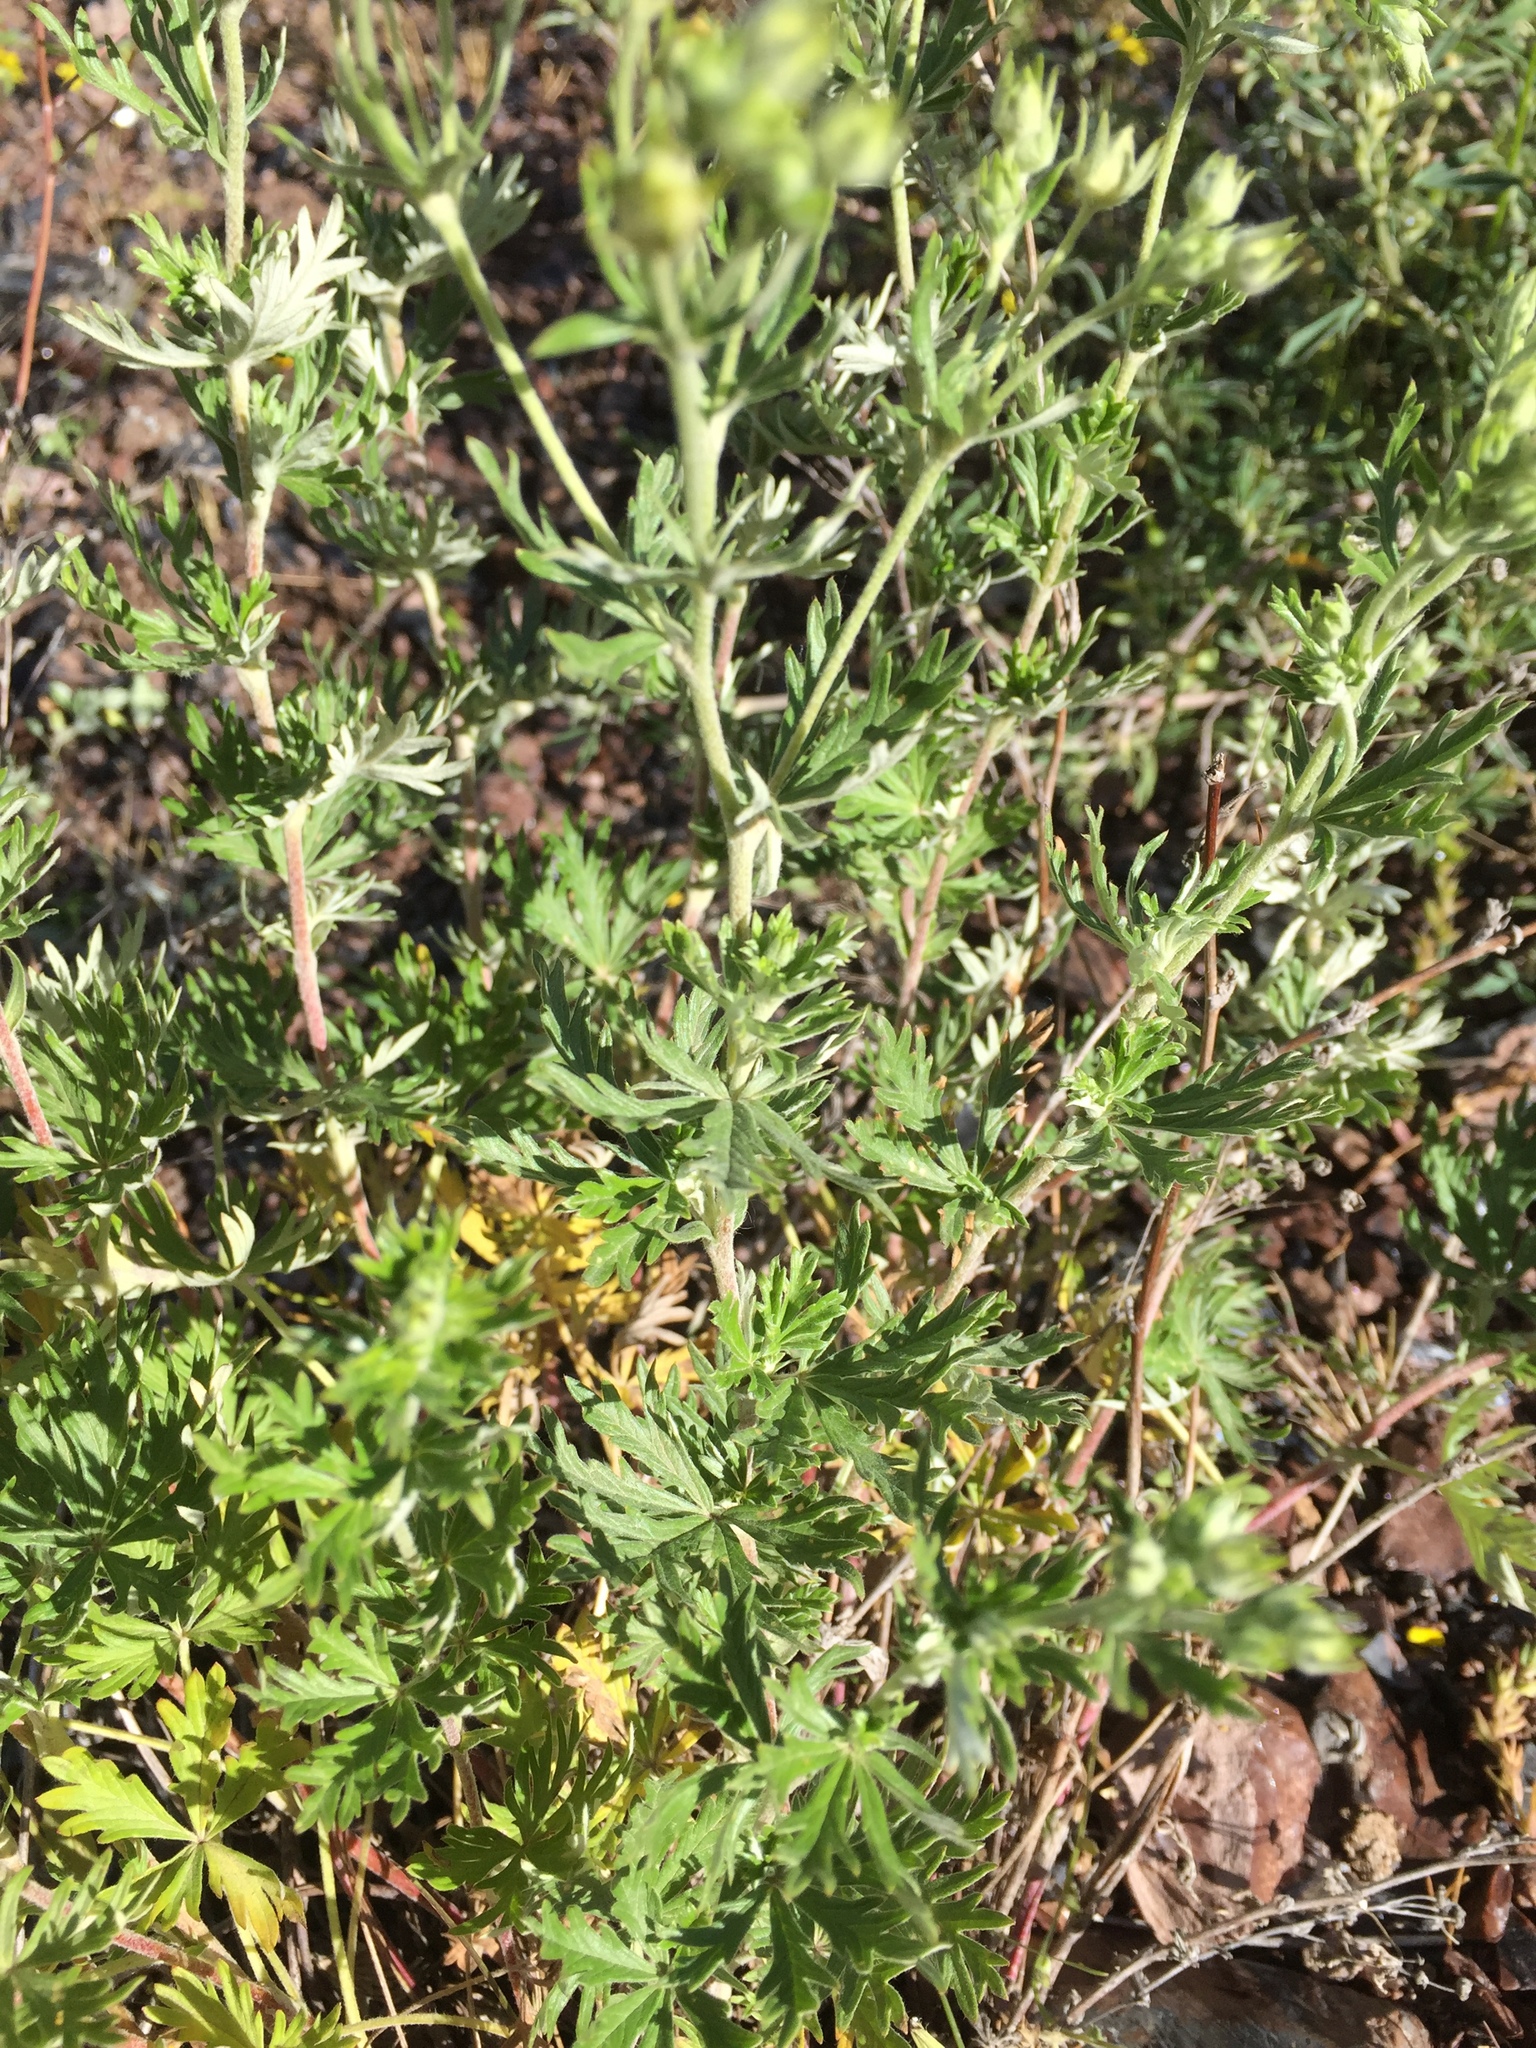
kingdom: Plantae
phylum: Tracheophyta
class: Magnoliopsida
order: Rosales
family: Rosaceae
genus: Potentilla
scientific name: Potentilla argentea
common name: Hoary cinquefoil
